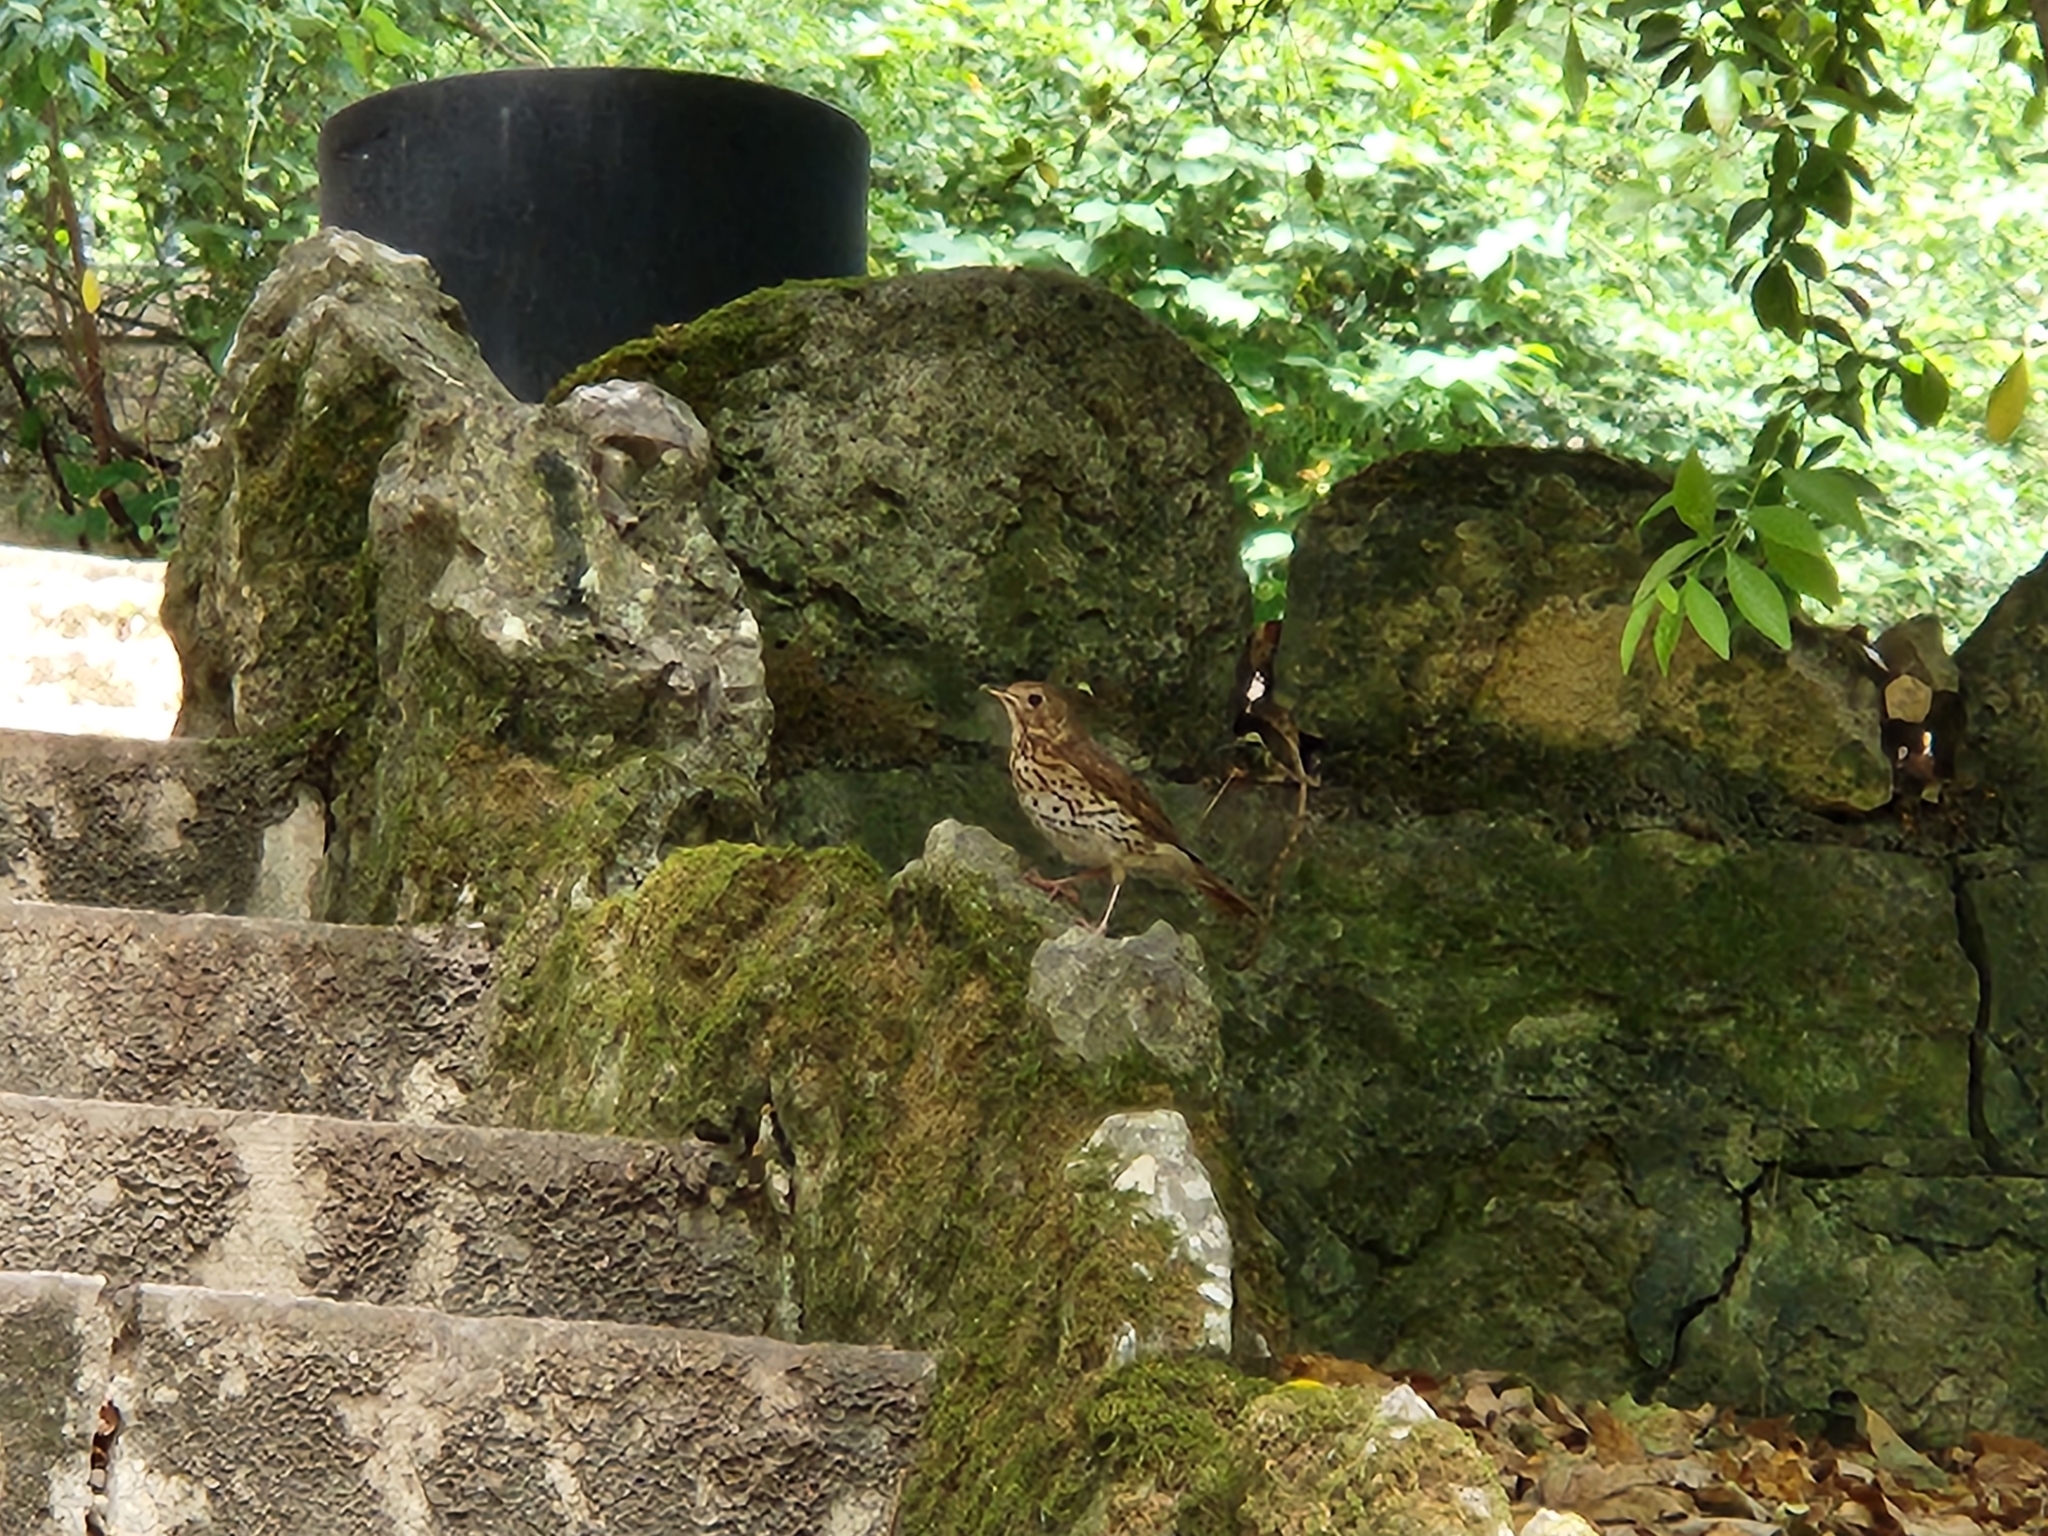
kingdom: Animalia
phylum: Chordata
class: Aves
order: Passeriformes
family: Turdidae
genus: Turdus
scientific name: Turdus philomelos
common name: Song thrush
